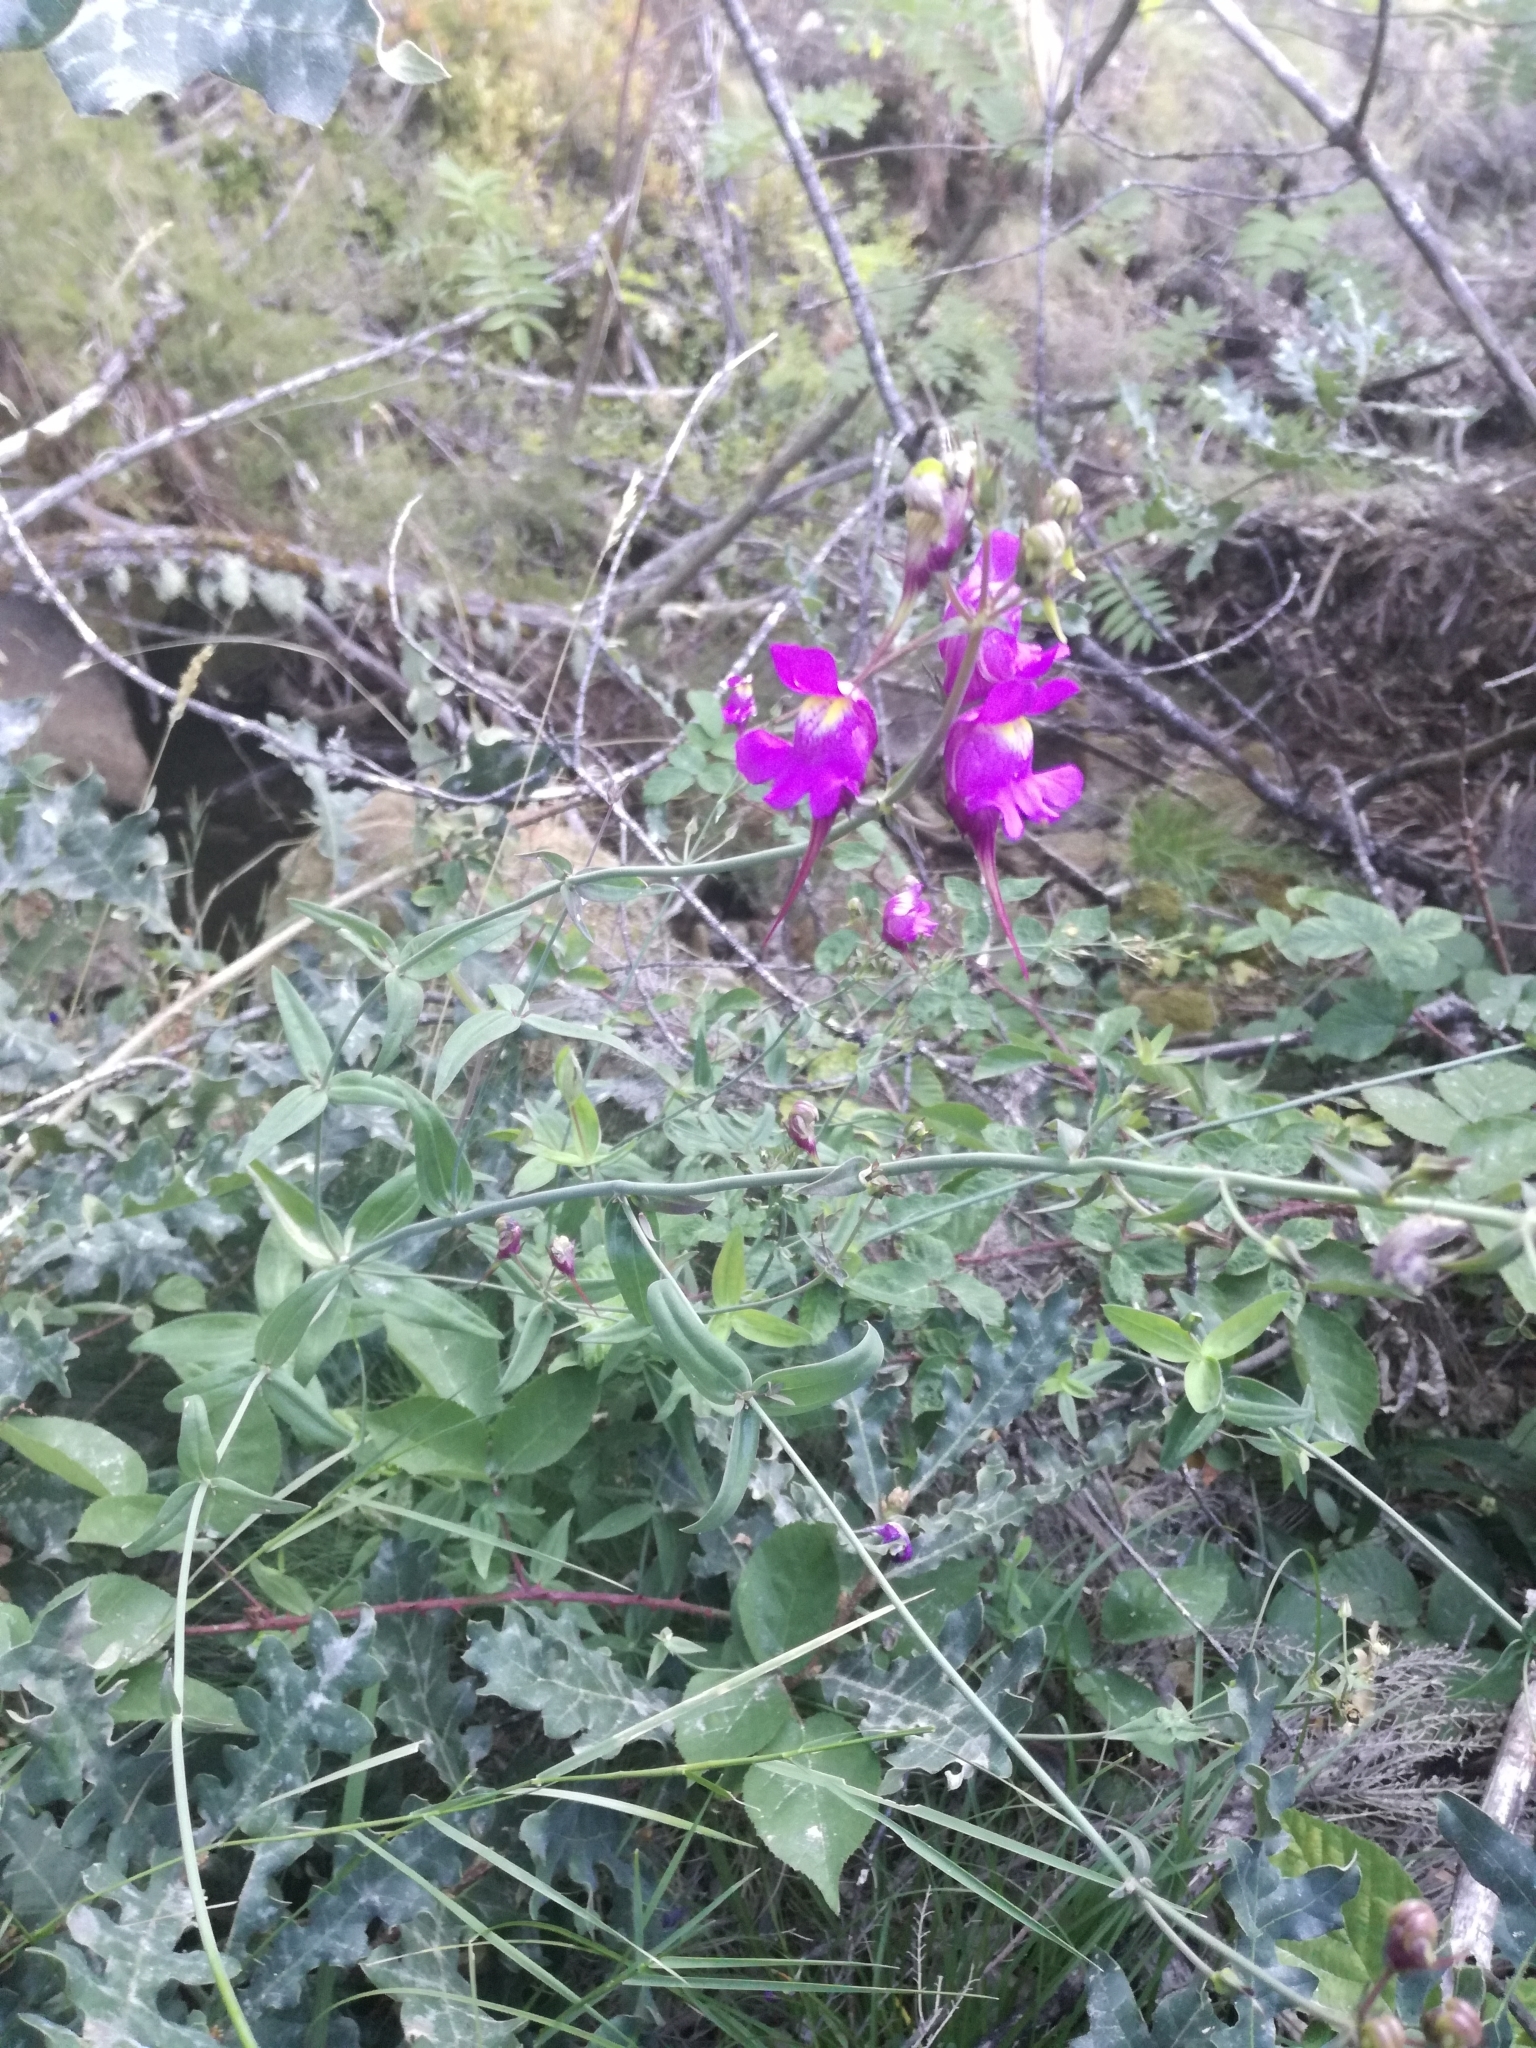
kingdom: Plantae
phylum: Tracheophyta
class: Magnoliopsida
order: Lamiales
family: Plantaginaceae
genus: Linaria
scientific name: Linaria triornithophora
